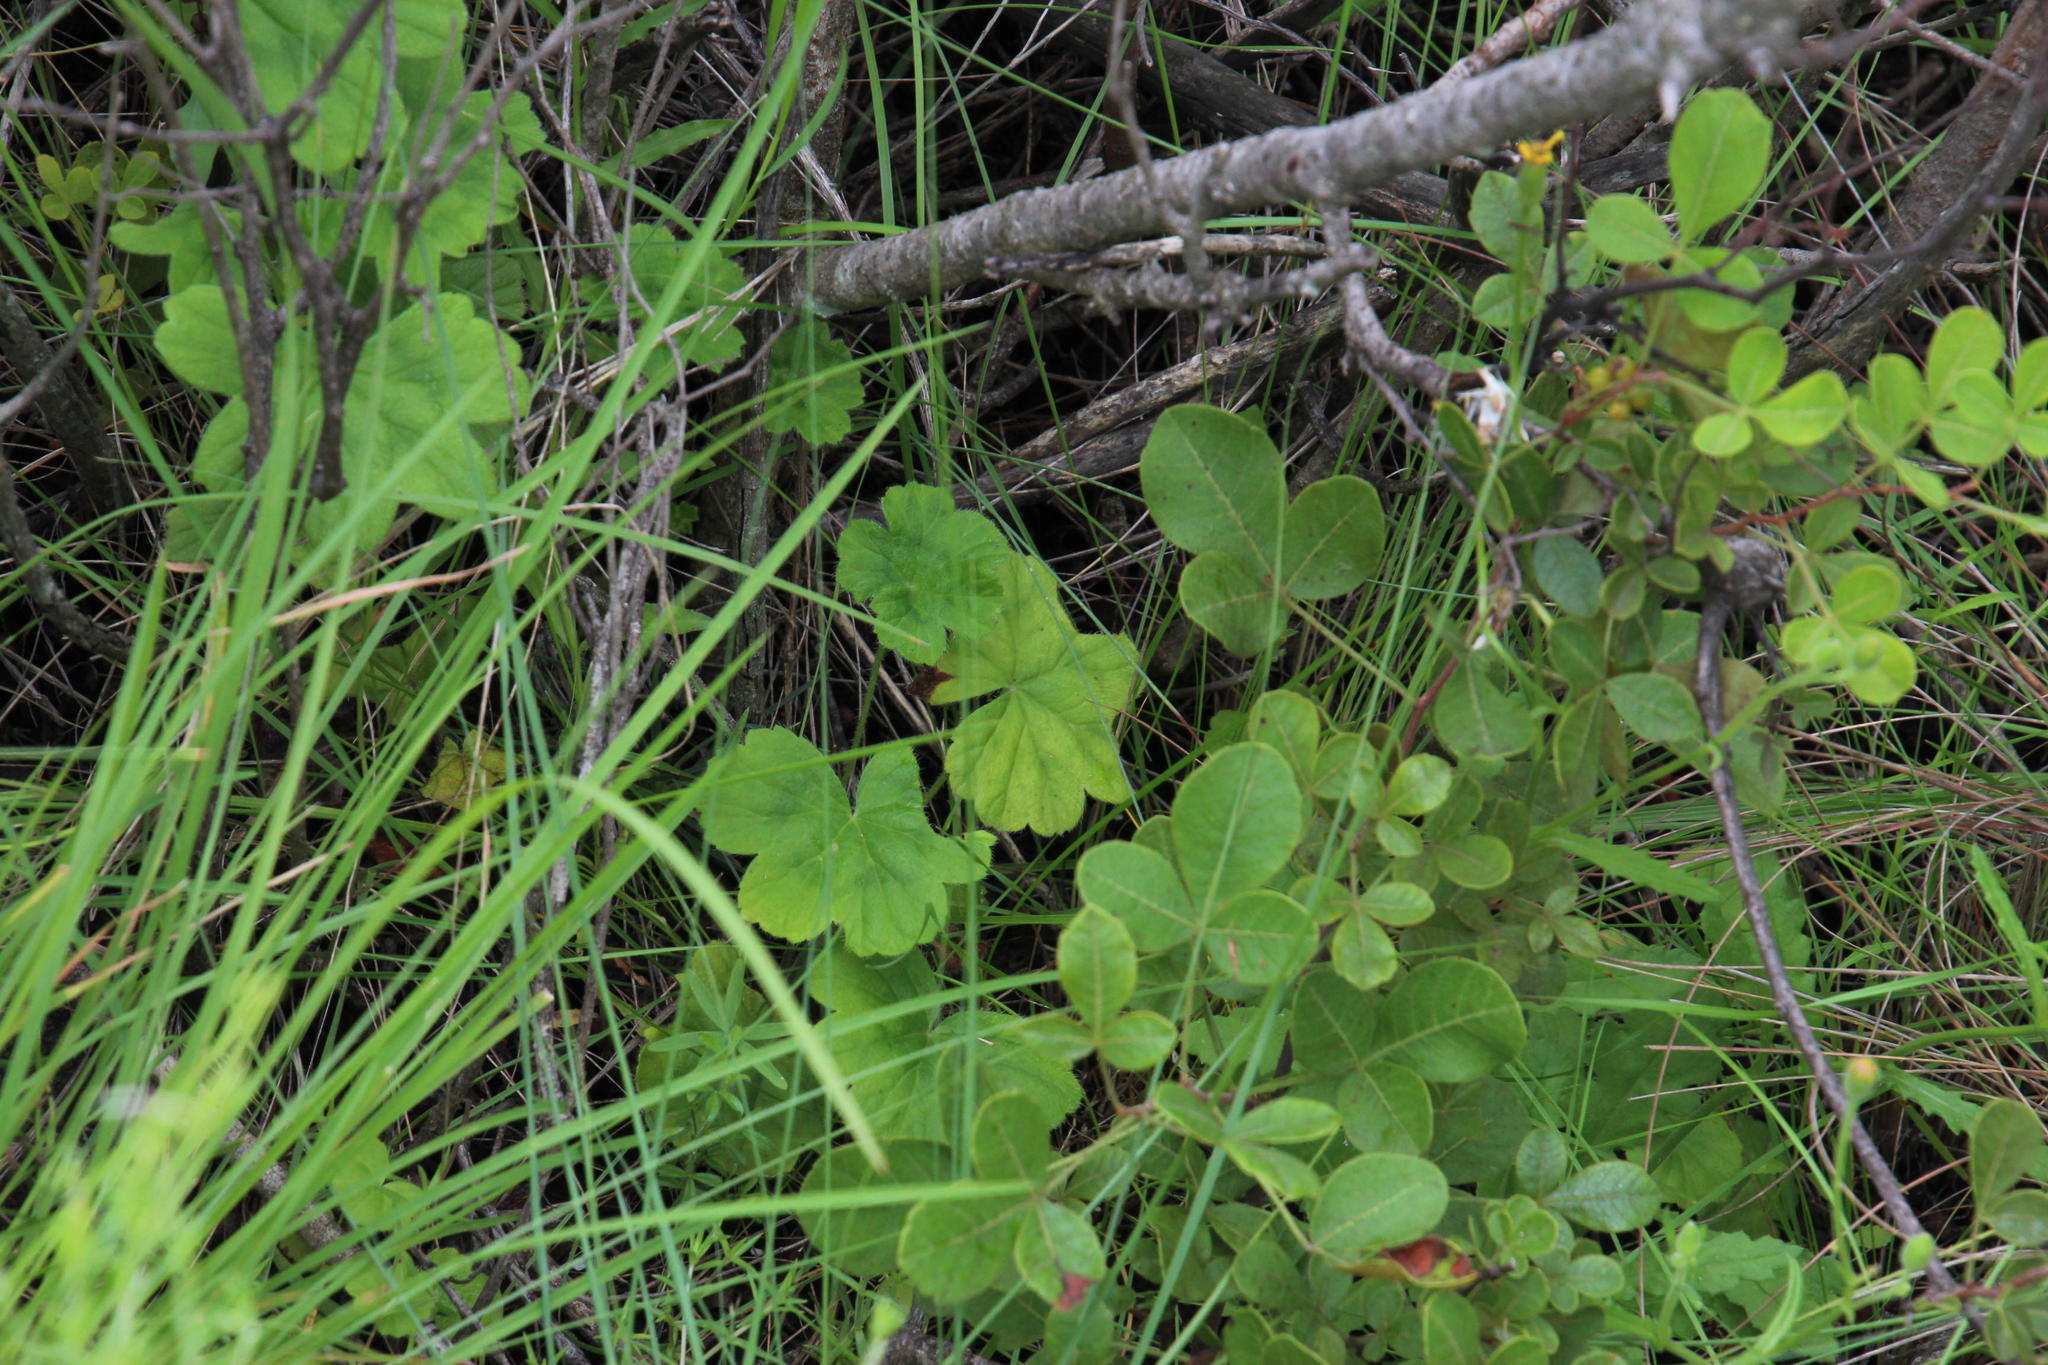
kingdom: Plantae
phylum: Tracheophyta
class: Magnoliopsida
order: Geraniales
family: Geraniaceae
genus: Pelargonium
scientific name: Pelargonium alchemilloides
